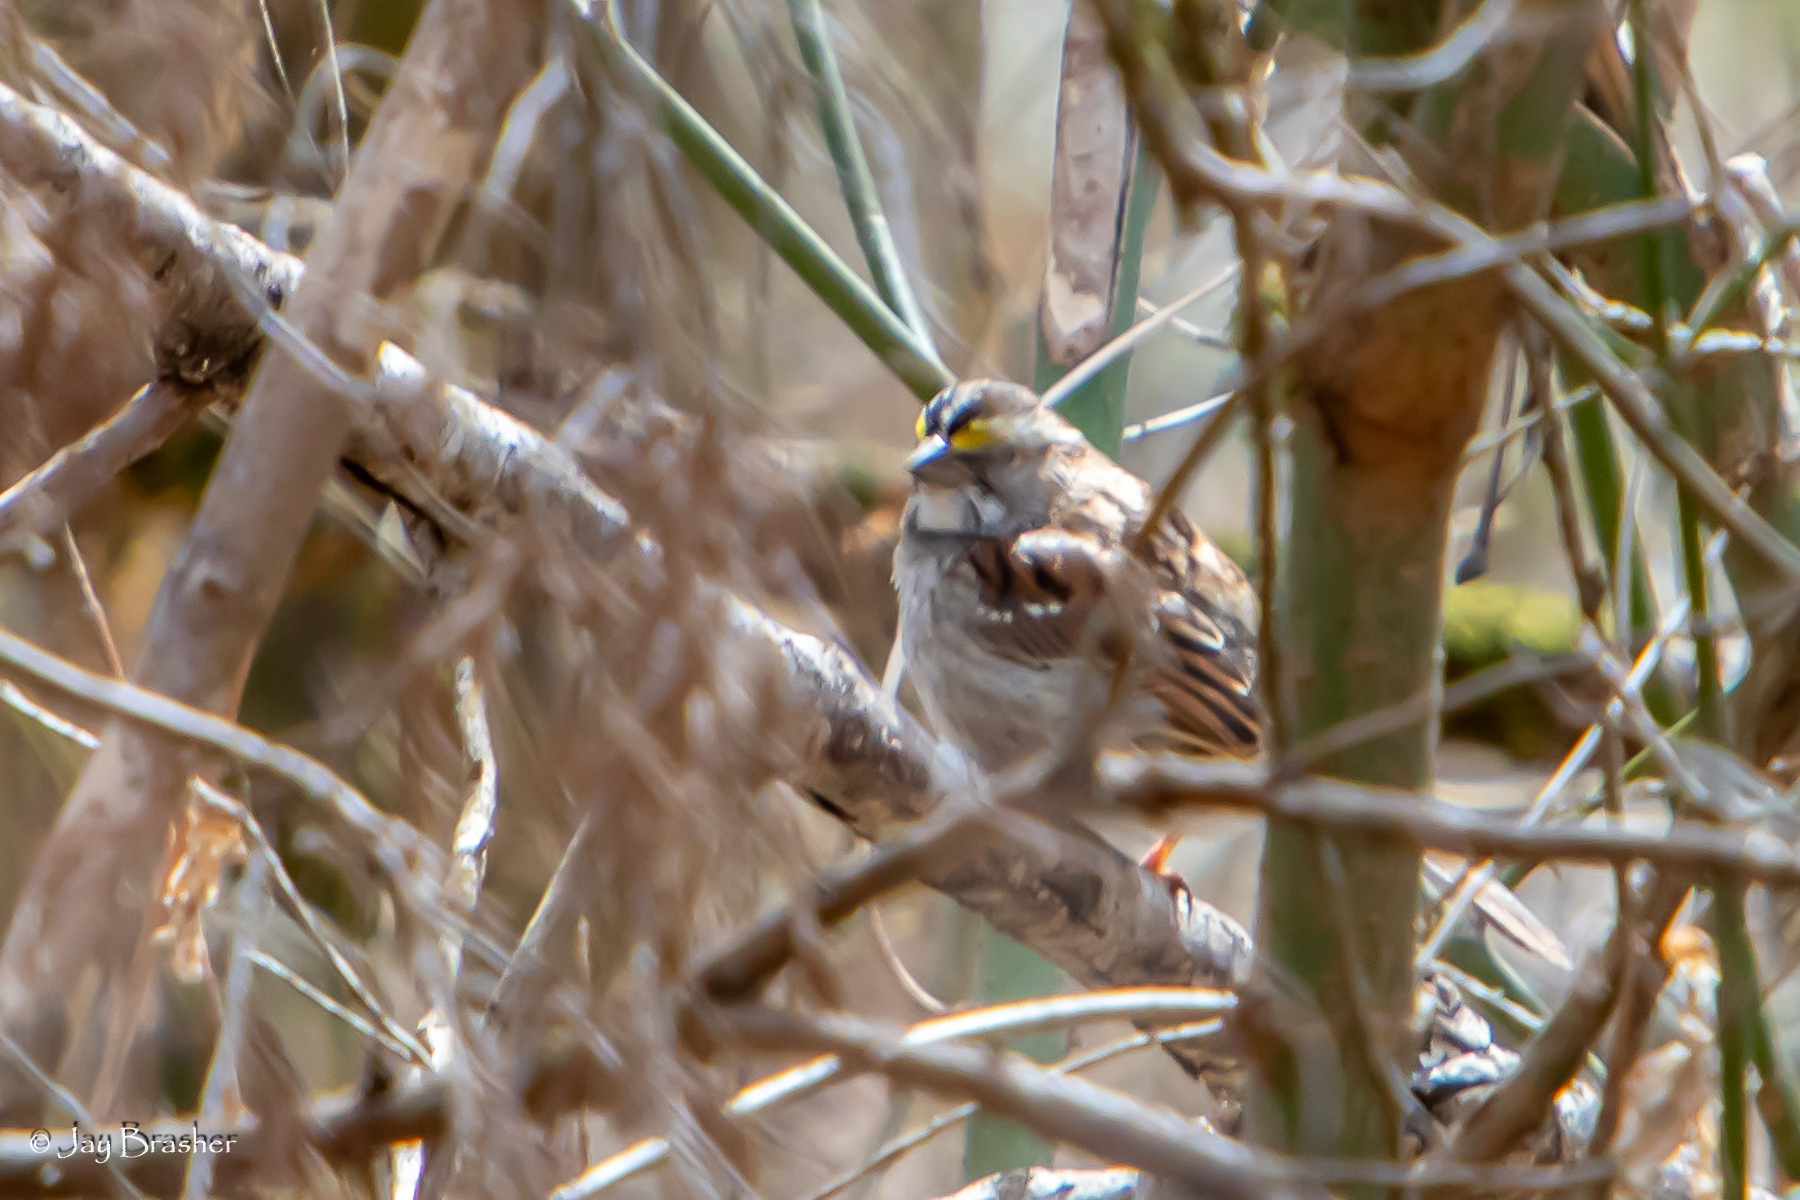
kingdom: Animalia
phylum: Chordata
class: Aves
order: Passeriformes
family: Passerellidae
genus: Zonotrichia
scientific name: Zonotrichia albicollis
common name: White-throated sparrow
